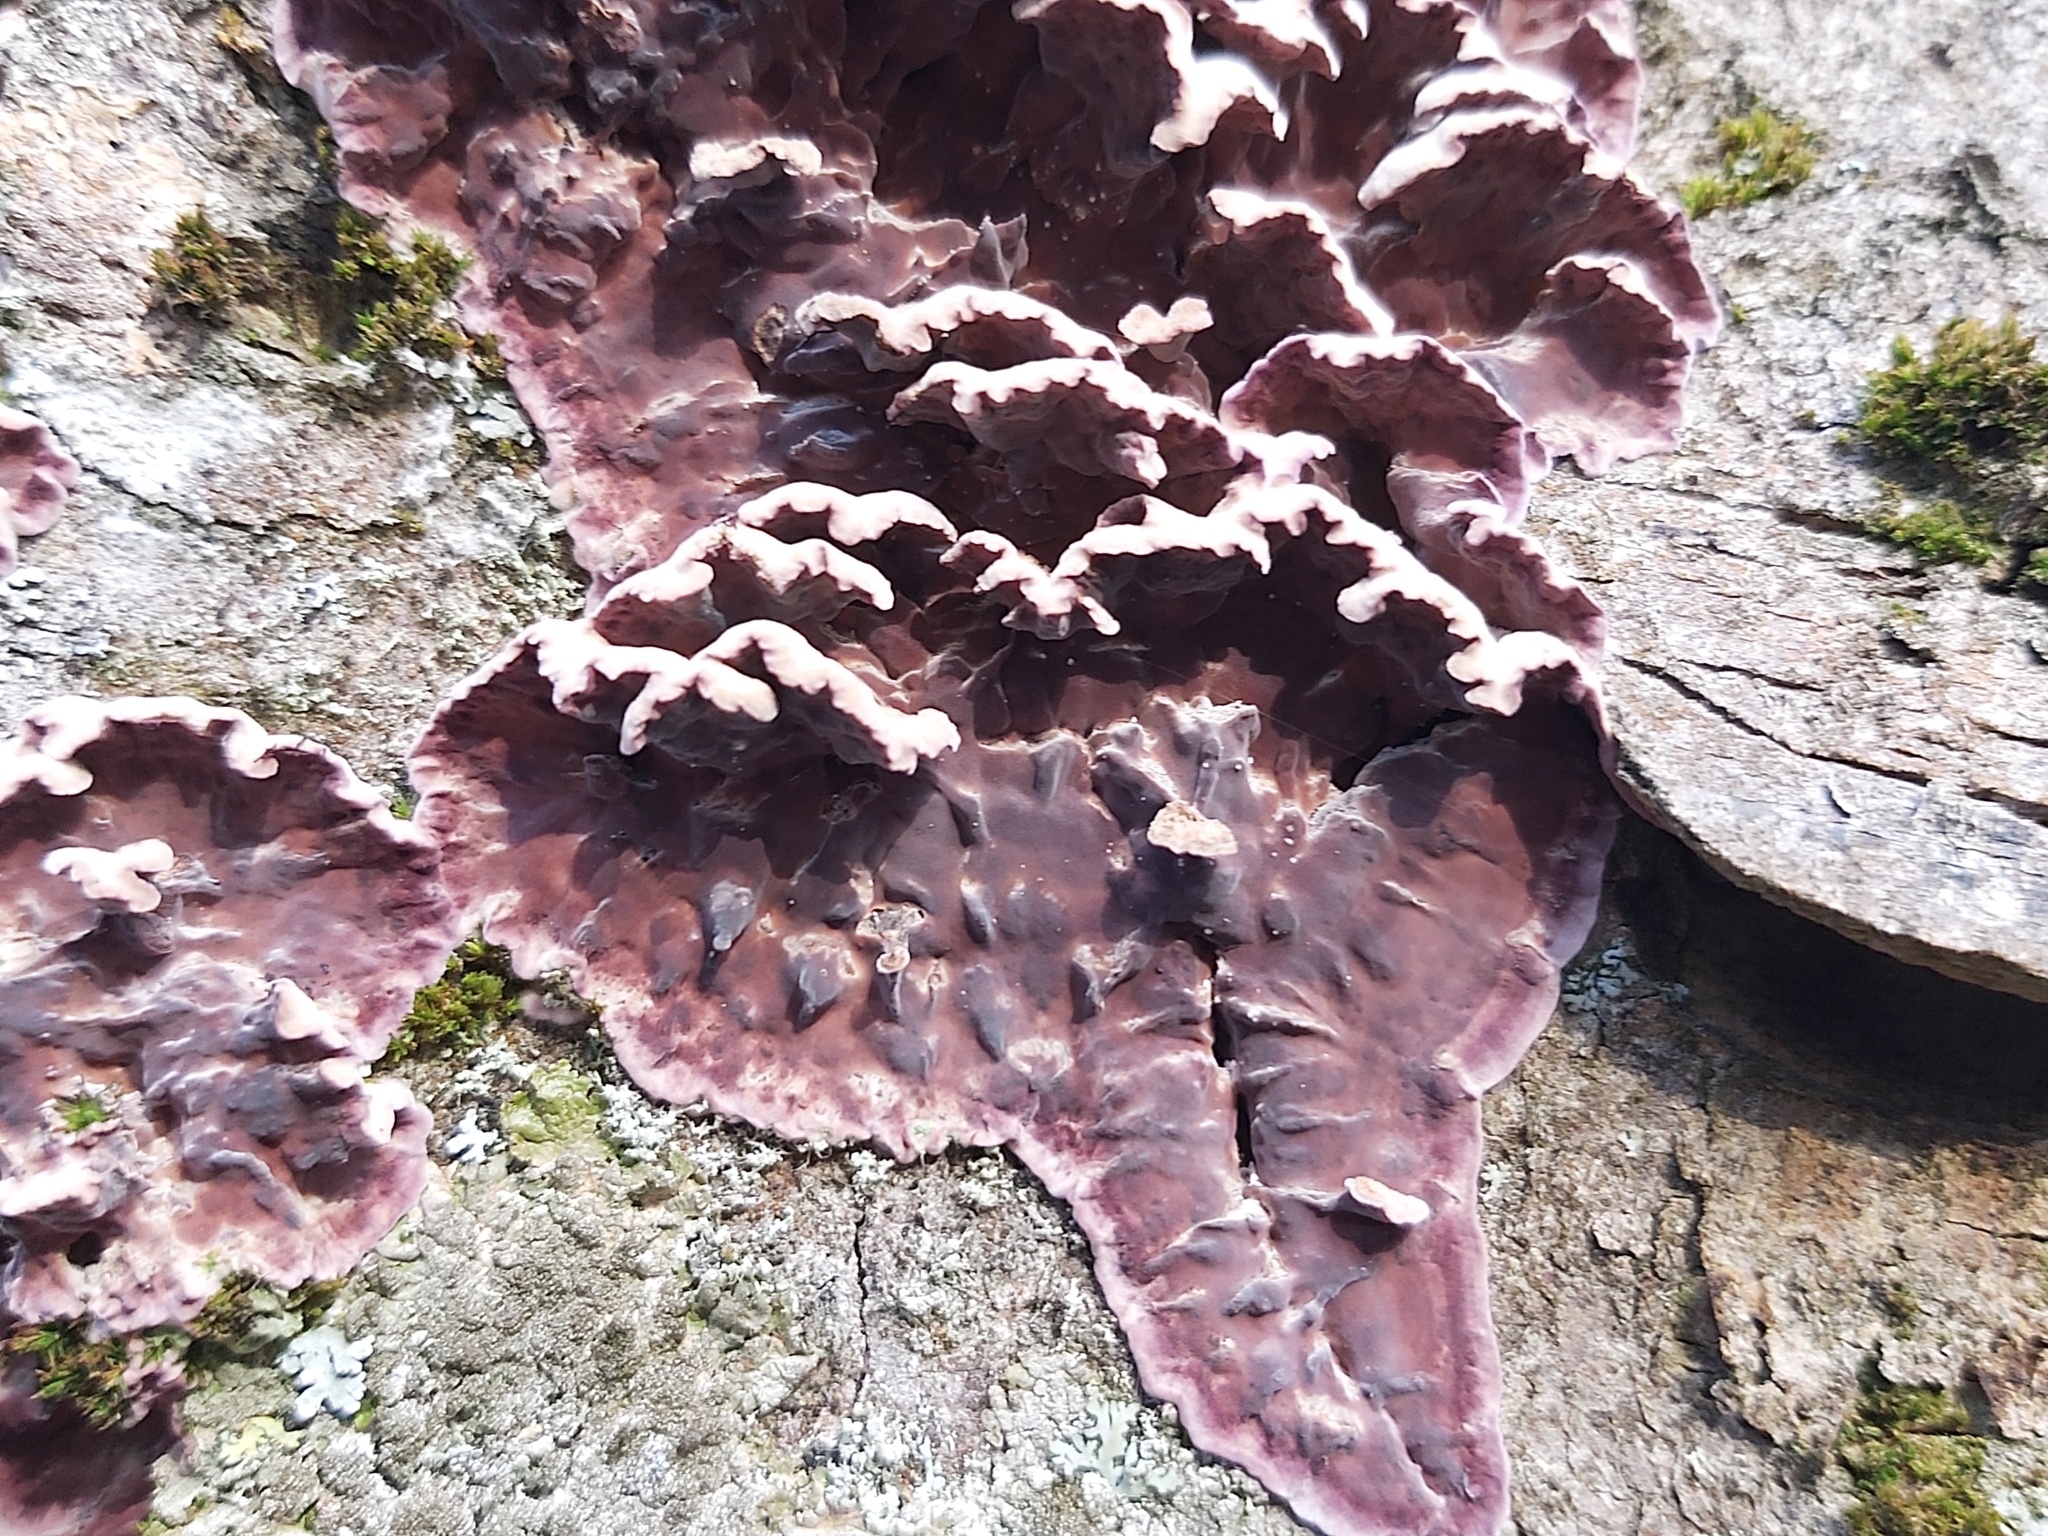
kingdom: Fungi
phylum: Basidiomycota
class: Agaricomycetes
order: Agaricales
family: Cyphellaceae
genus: Chondrostereum
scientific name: Chondrostereum purpureum
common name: Silver leaf disease
